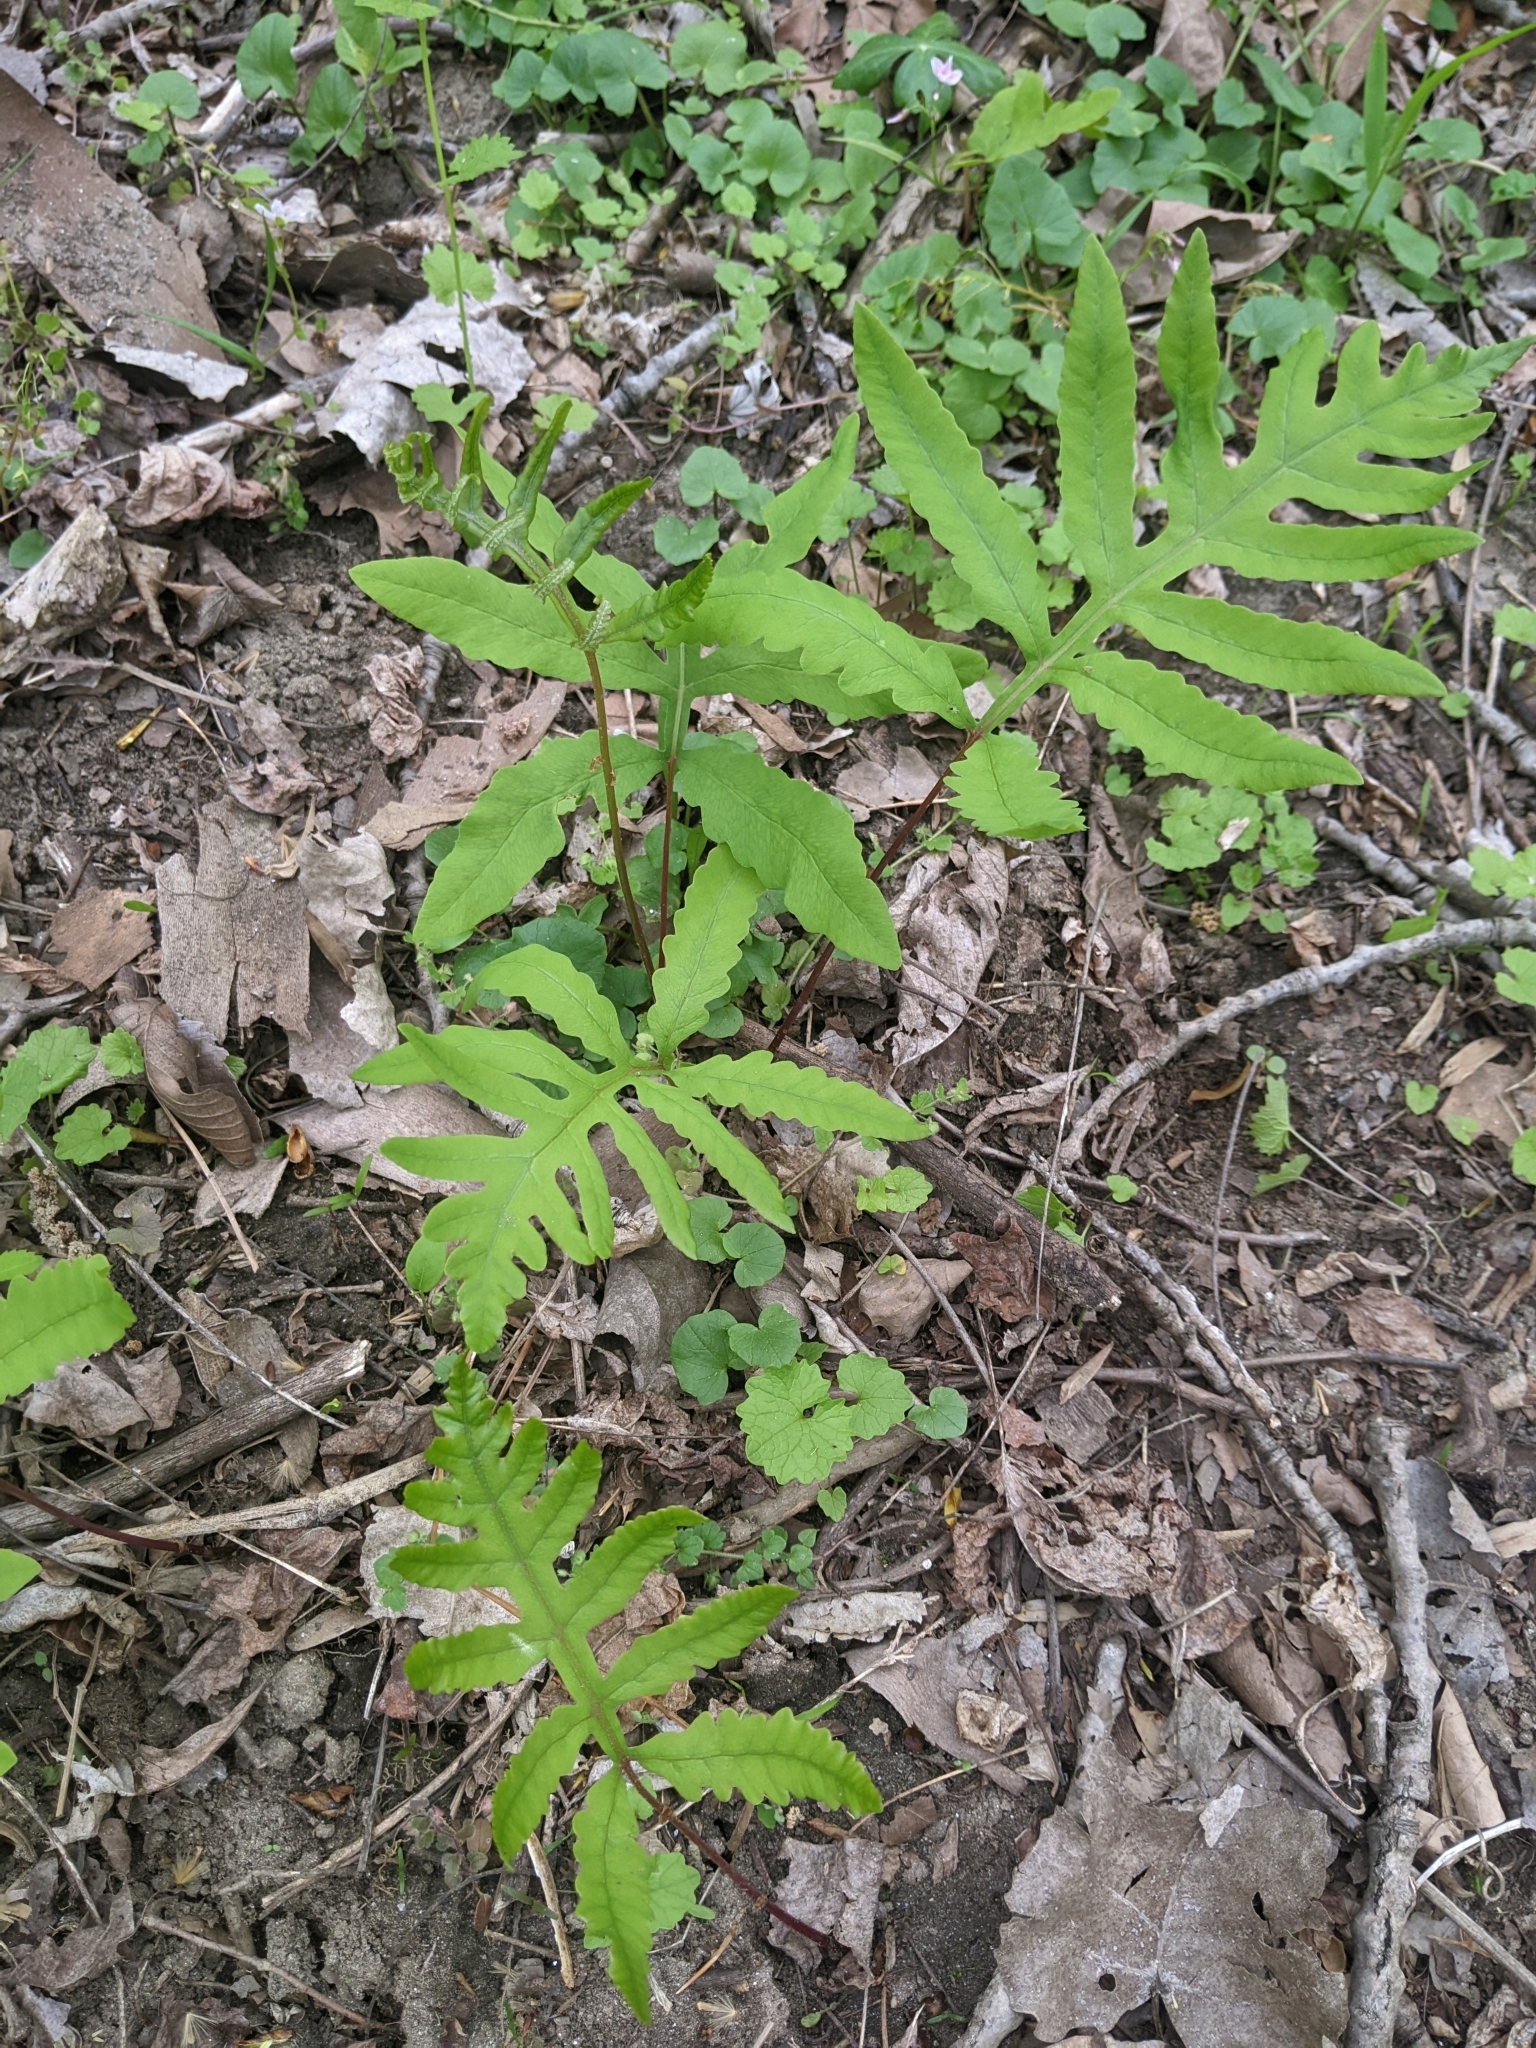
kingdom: Plantae
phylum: Tracheophyta
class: Polypodiopsida
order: Polypodiales
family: Onocleaceae
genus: Onoclea
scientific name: Onoclea sensibilis
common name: Sensitive fern
